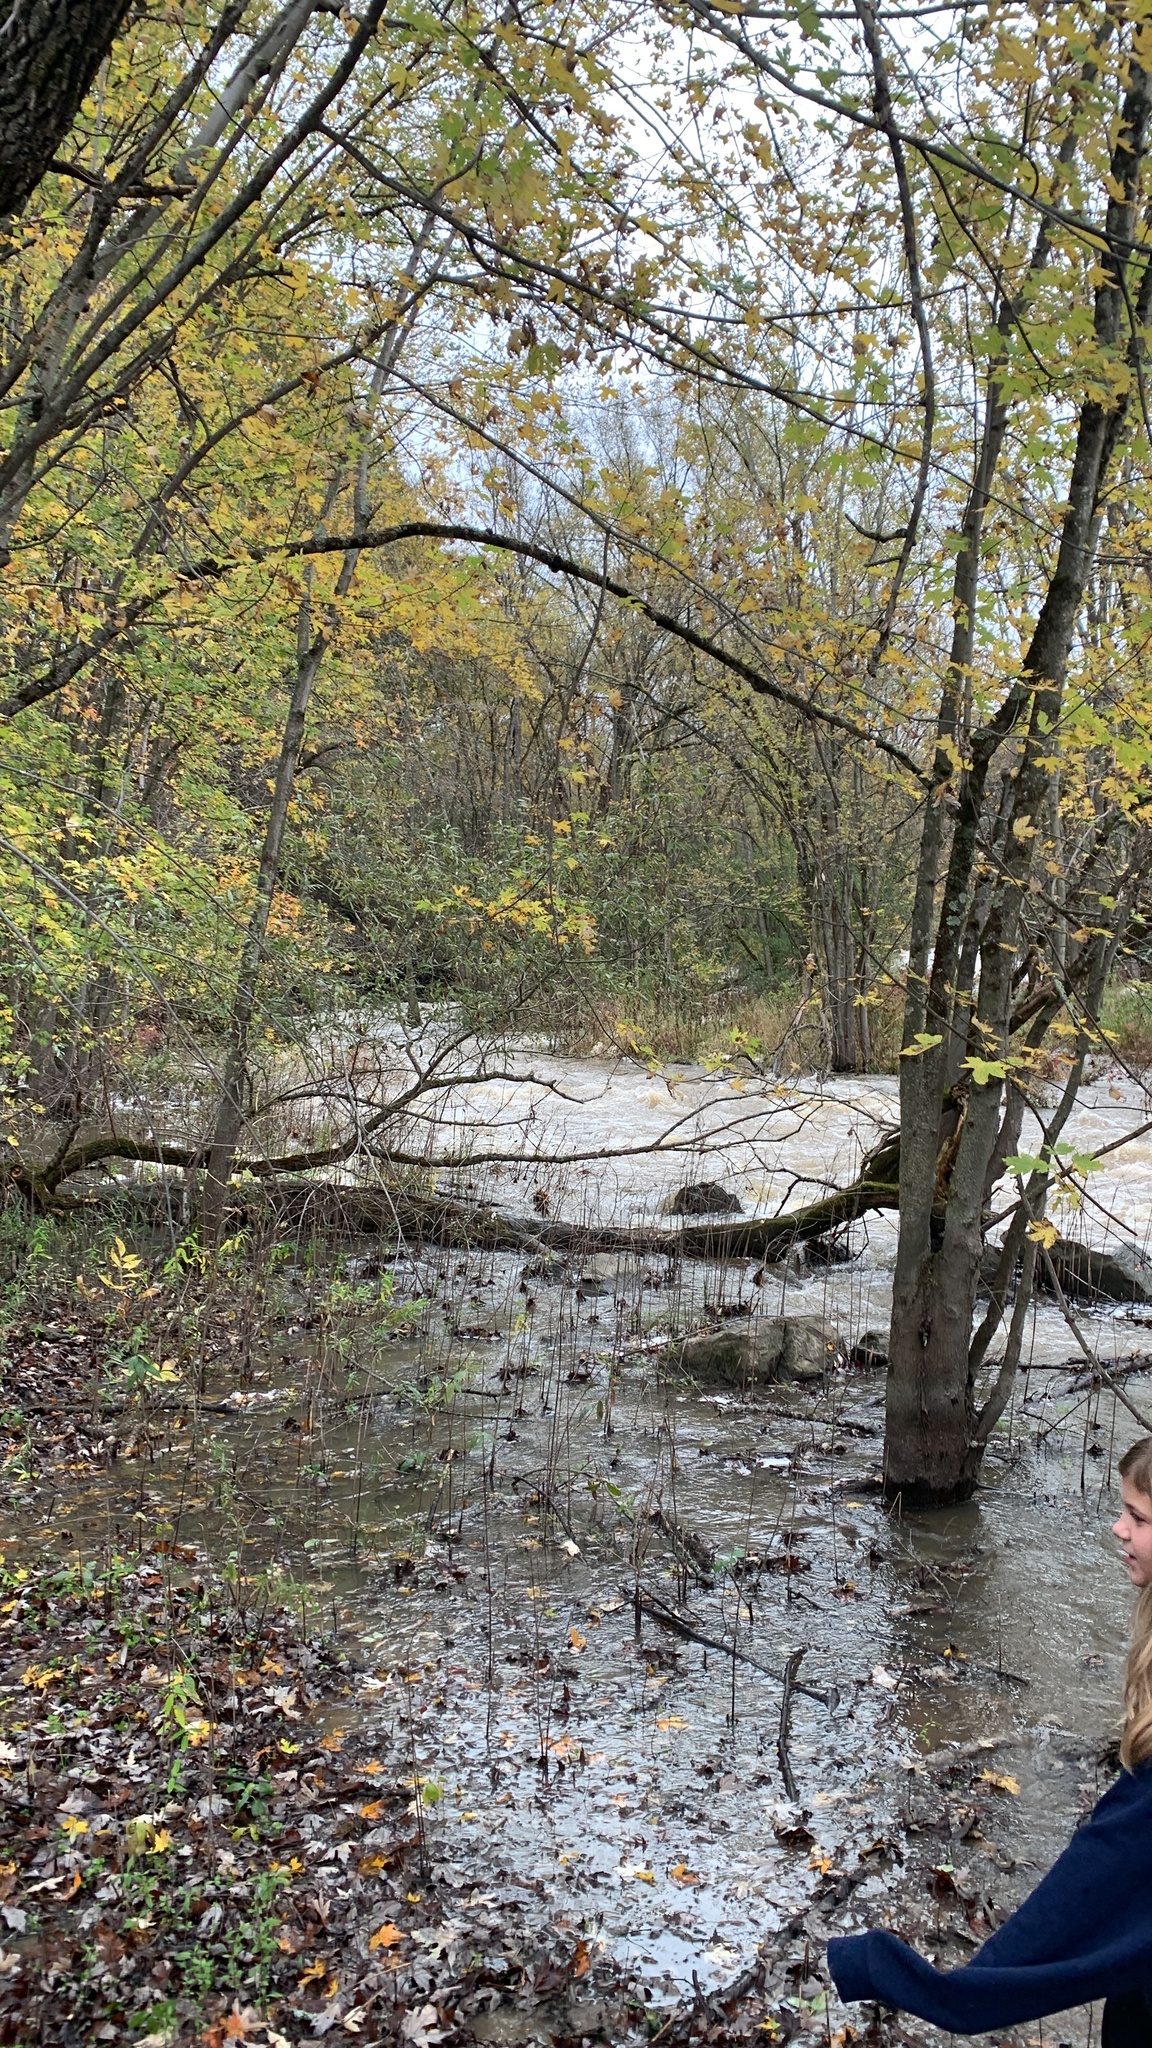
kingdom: Plantae
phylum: Tracheophyta
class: Magnoliopsida
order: Sapindales
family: Sapindaceae
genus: Acer
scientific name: Acer saccharinum
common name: Silver maple
